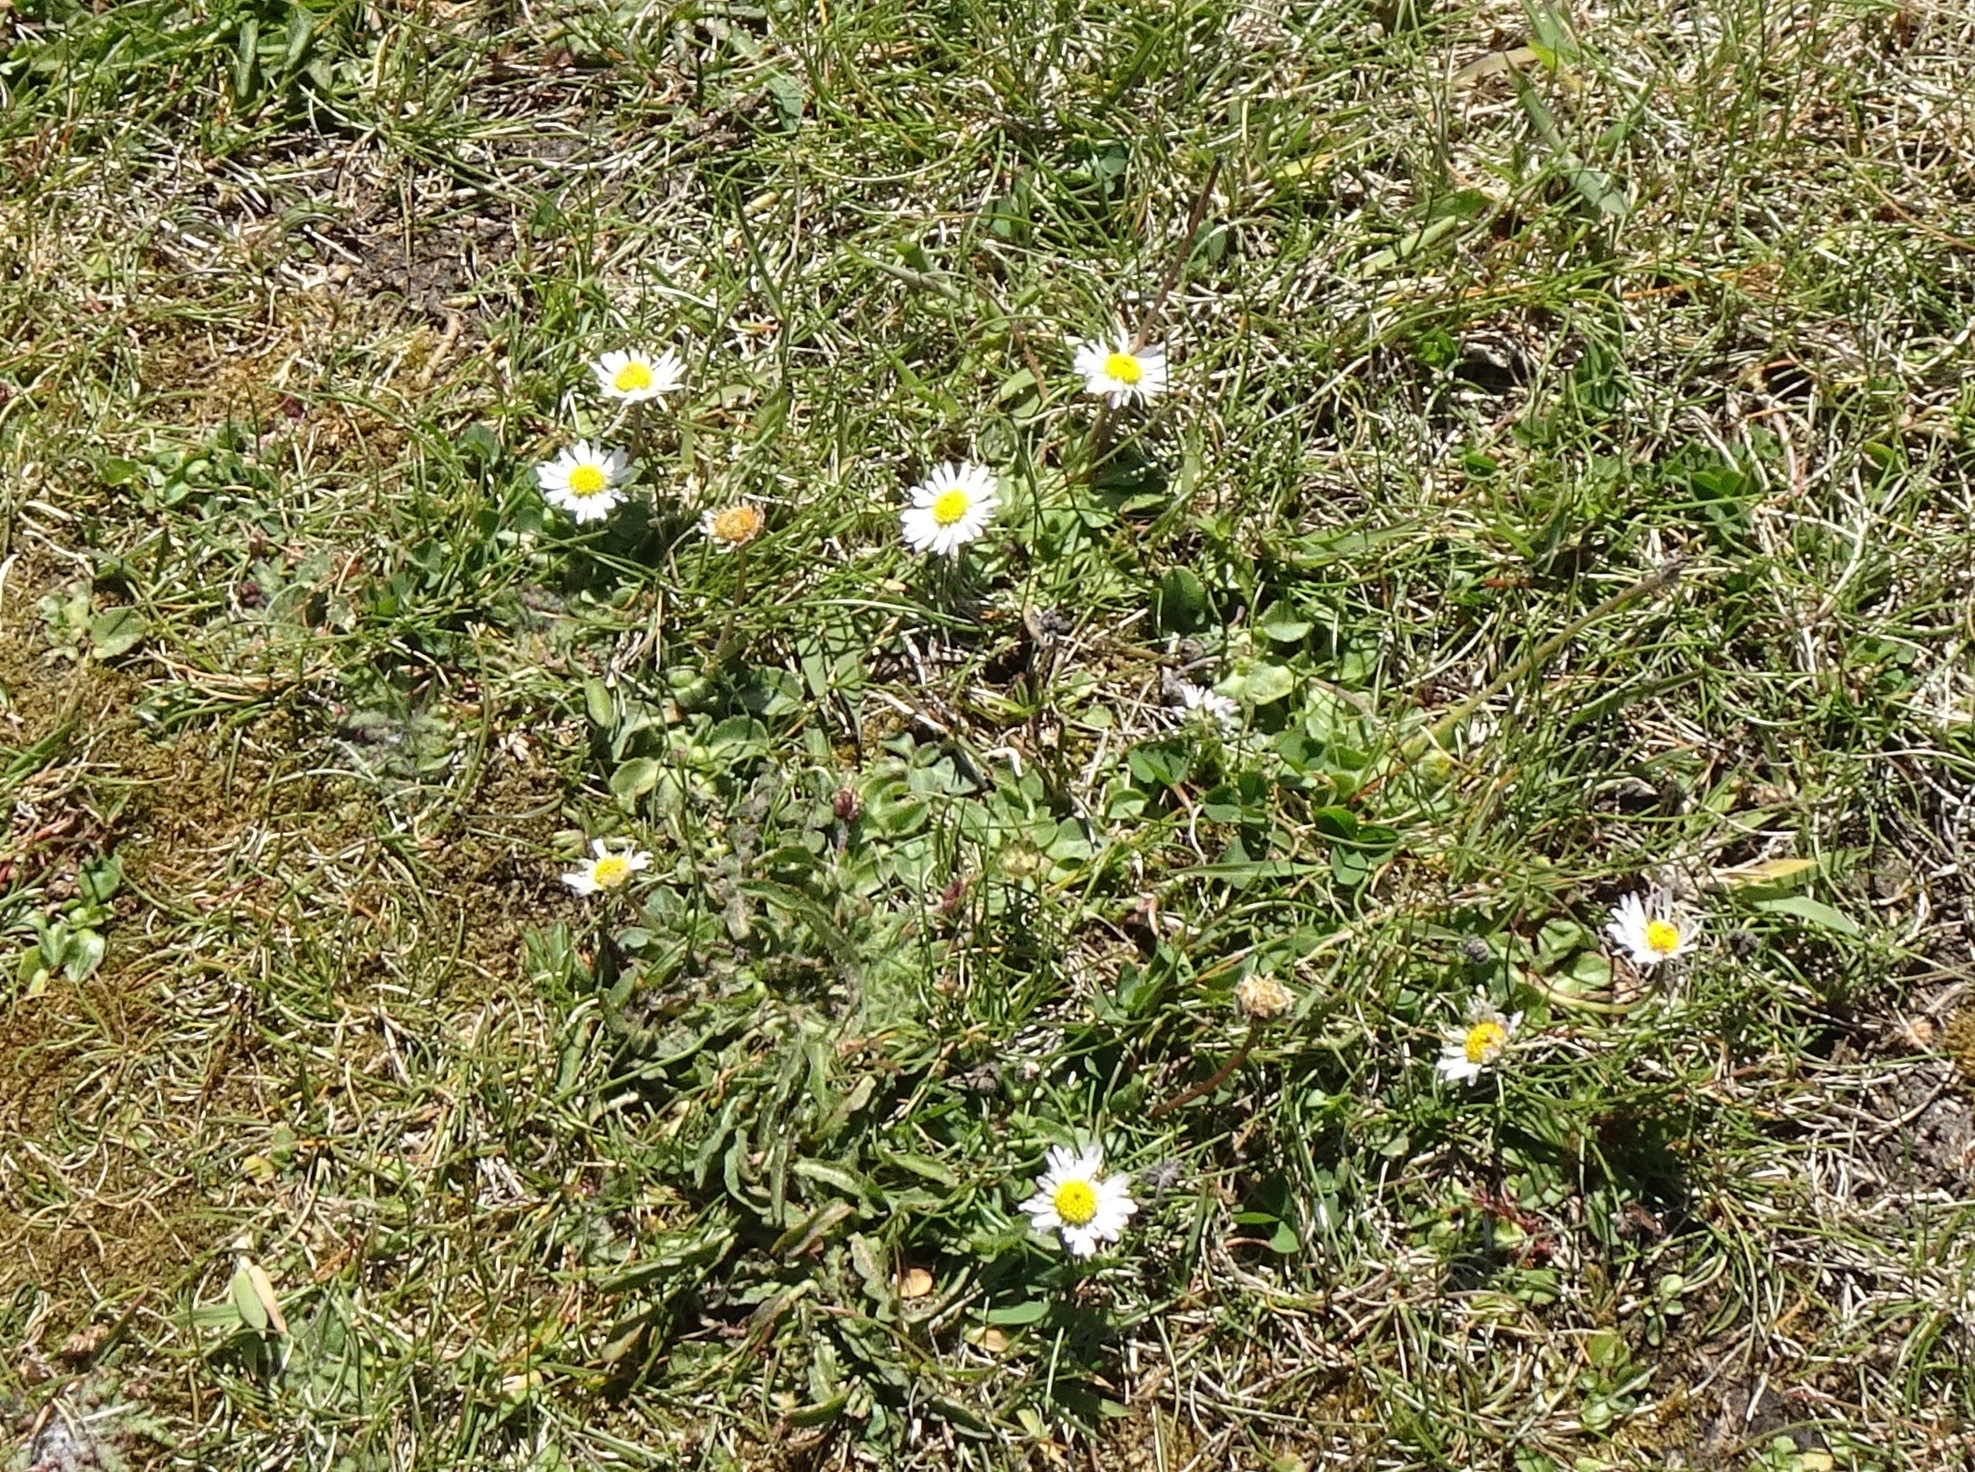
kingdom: Plantae
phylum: Tracheophyta
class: Magnoliopsida
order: Asterales
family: Asteraceae
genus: Bellis
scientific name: Bellis perennis
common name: Lawndaisy
